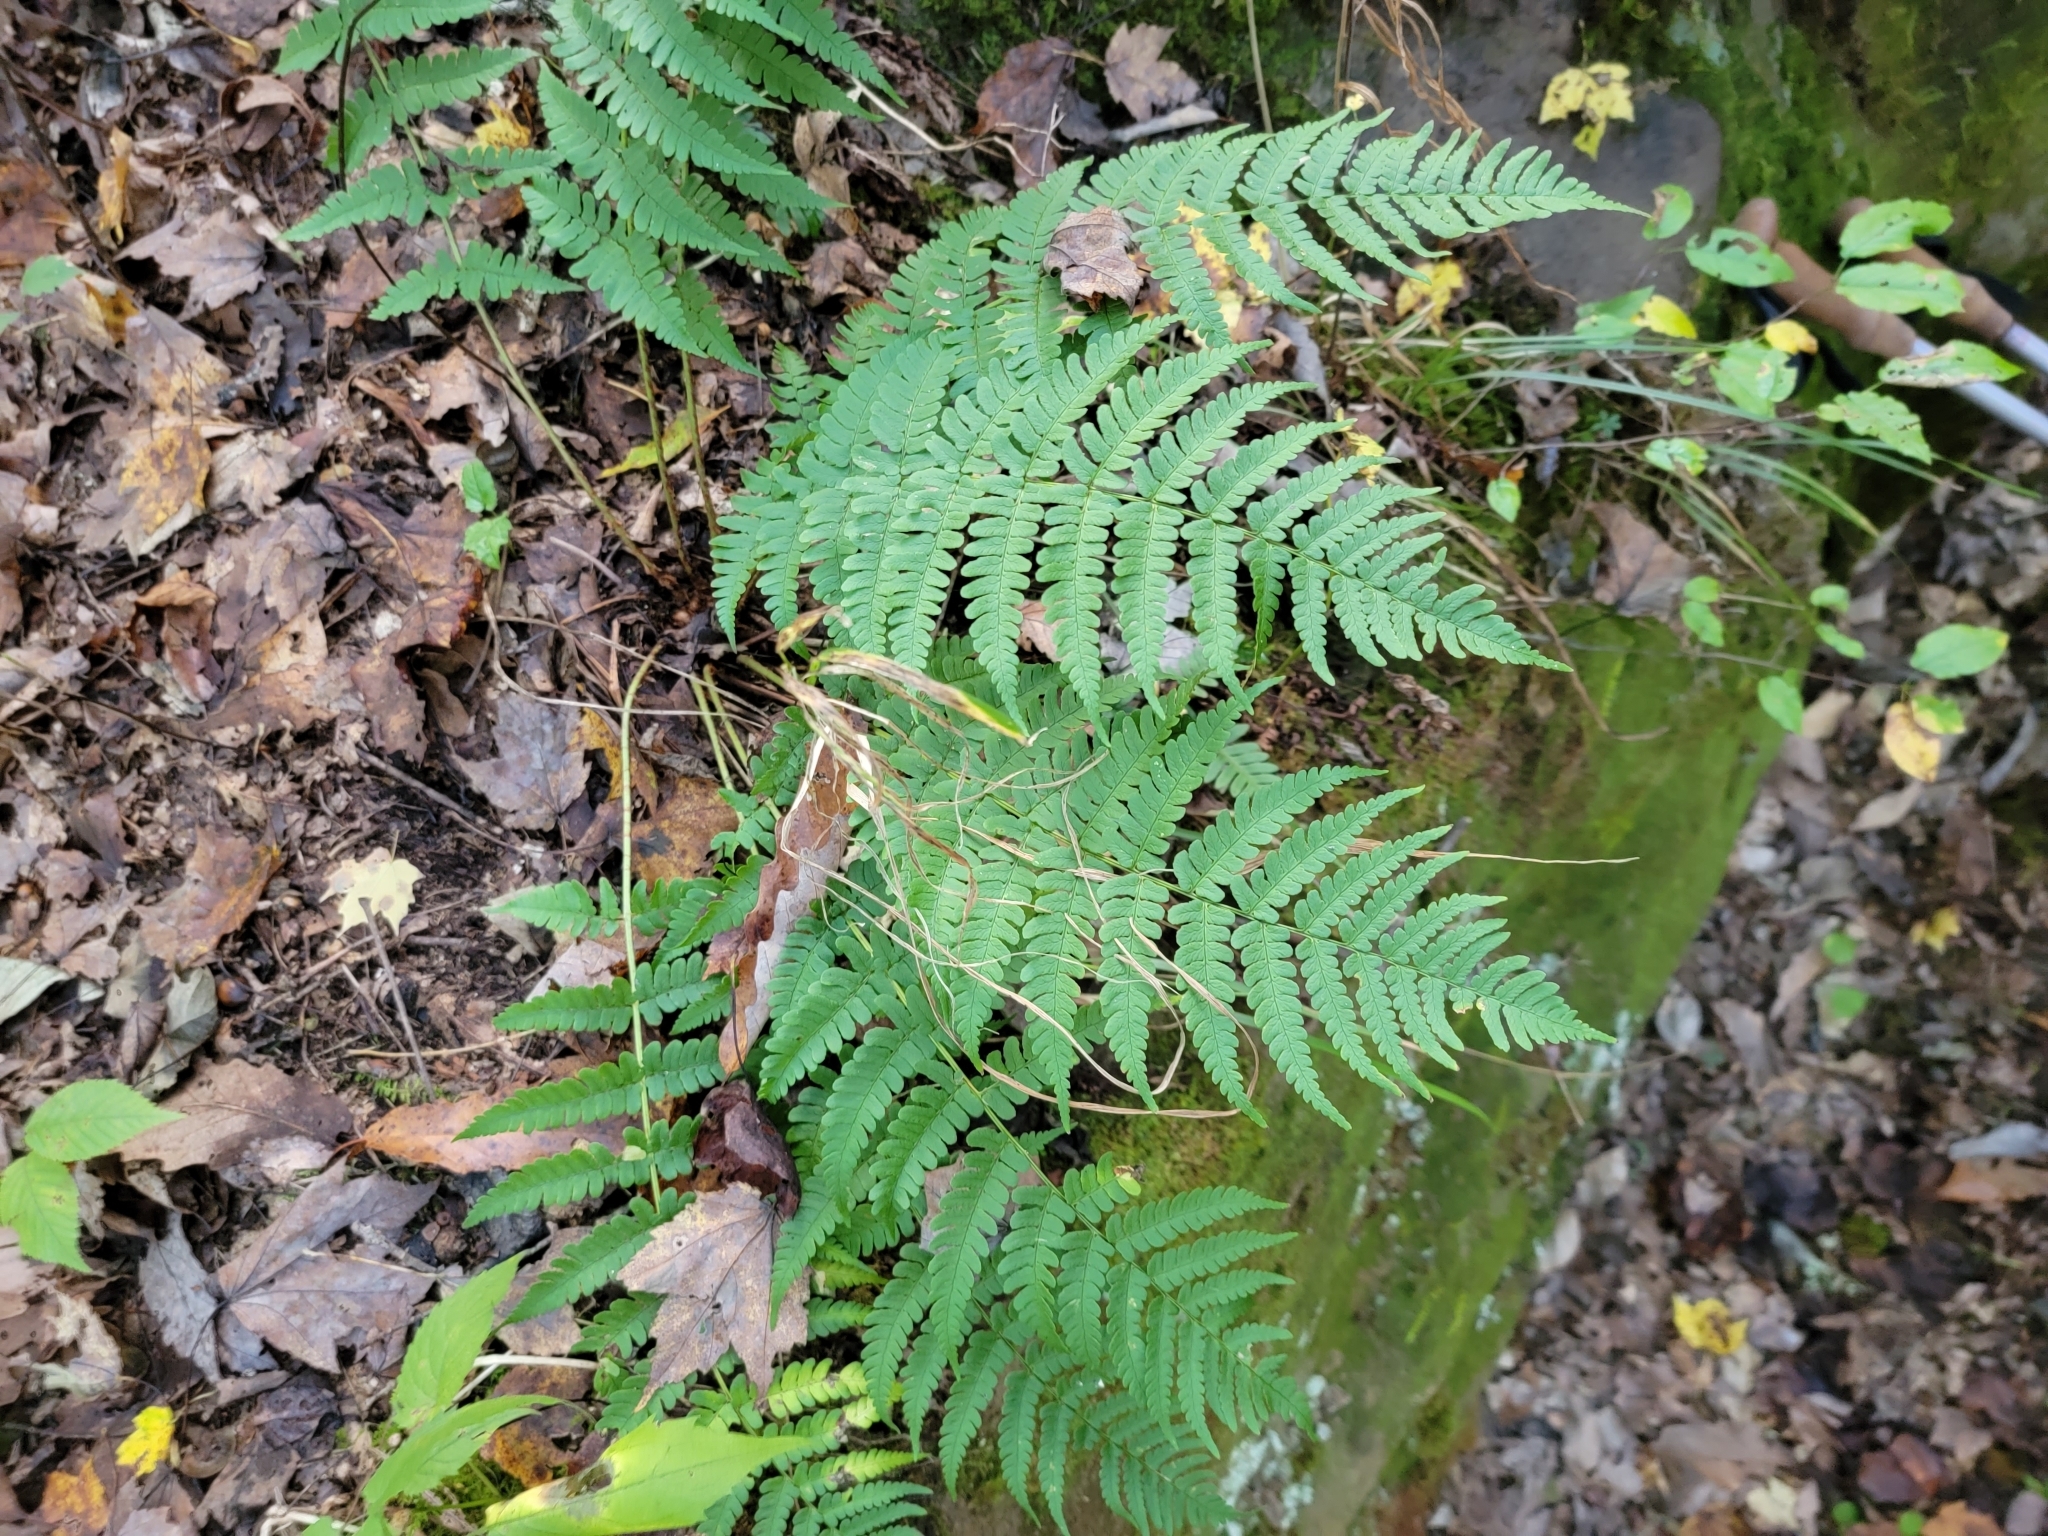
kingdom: Plantae
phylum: Tracheophyta
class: Polypodiopsida
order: Polypodiales
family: Dryopteridaceae
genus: Dryopteris
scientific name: Dryopteris marginalis
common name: Marginal wood fern
